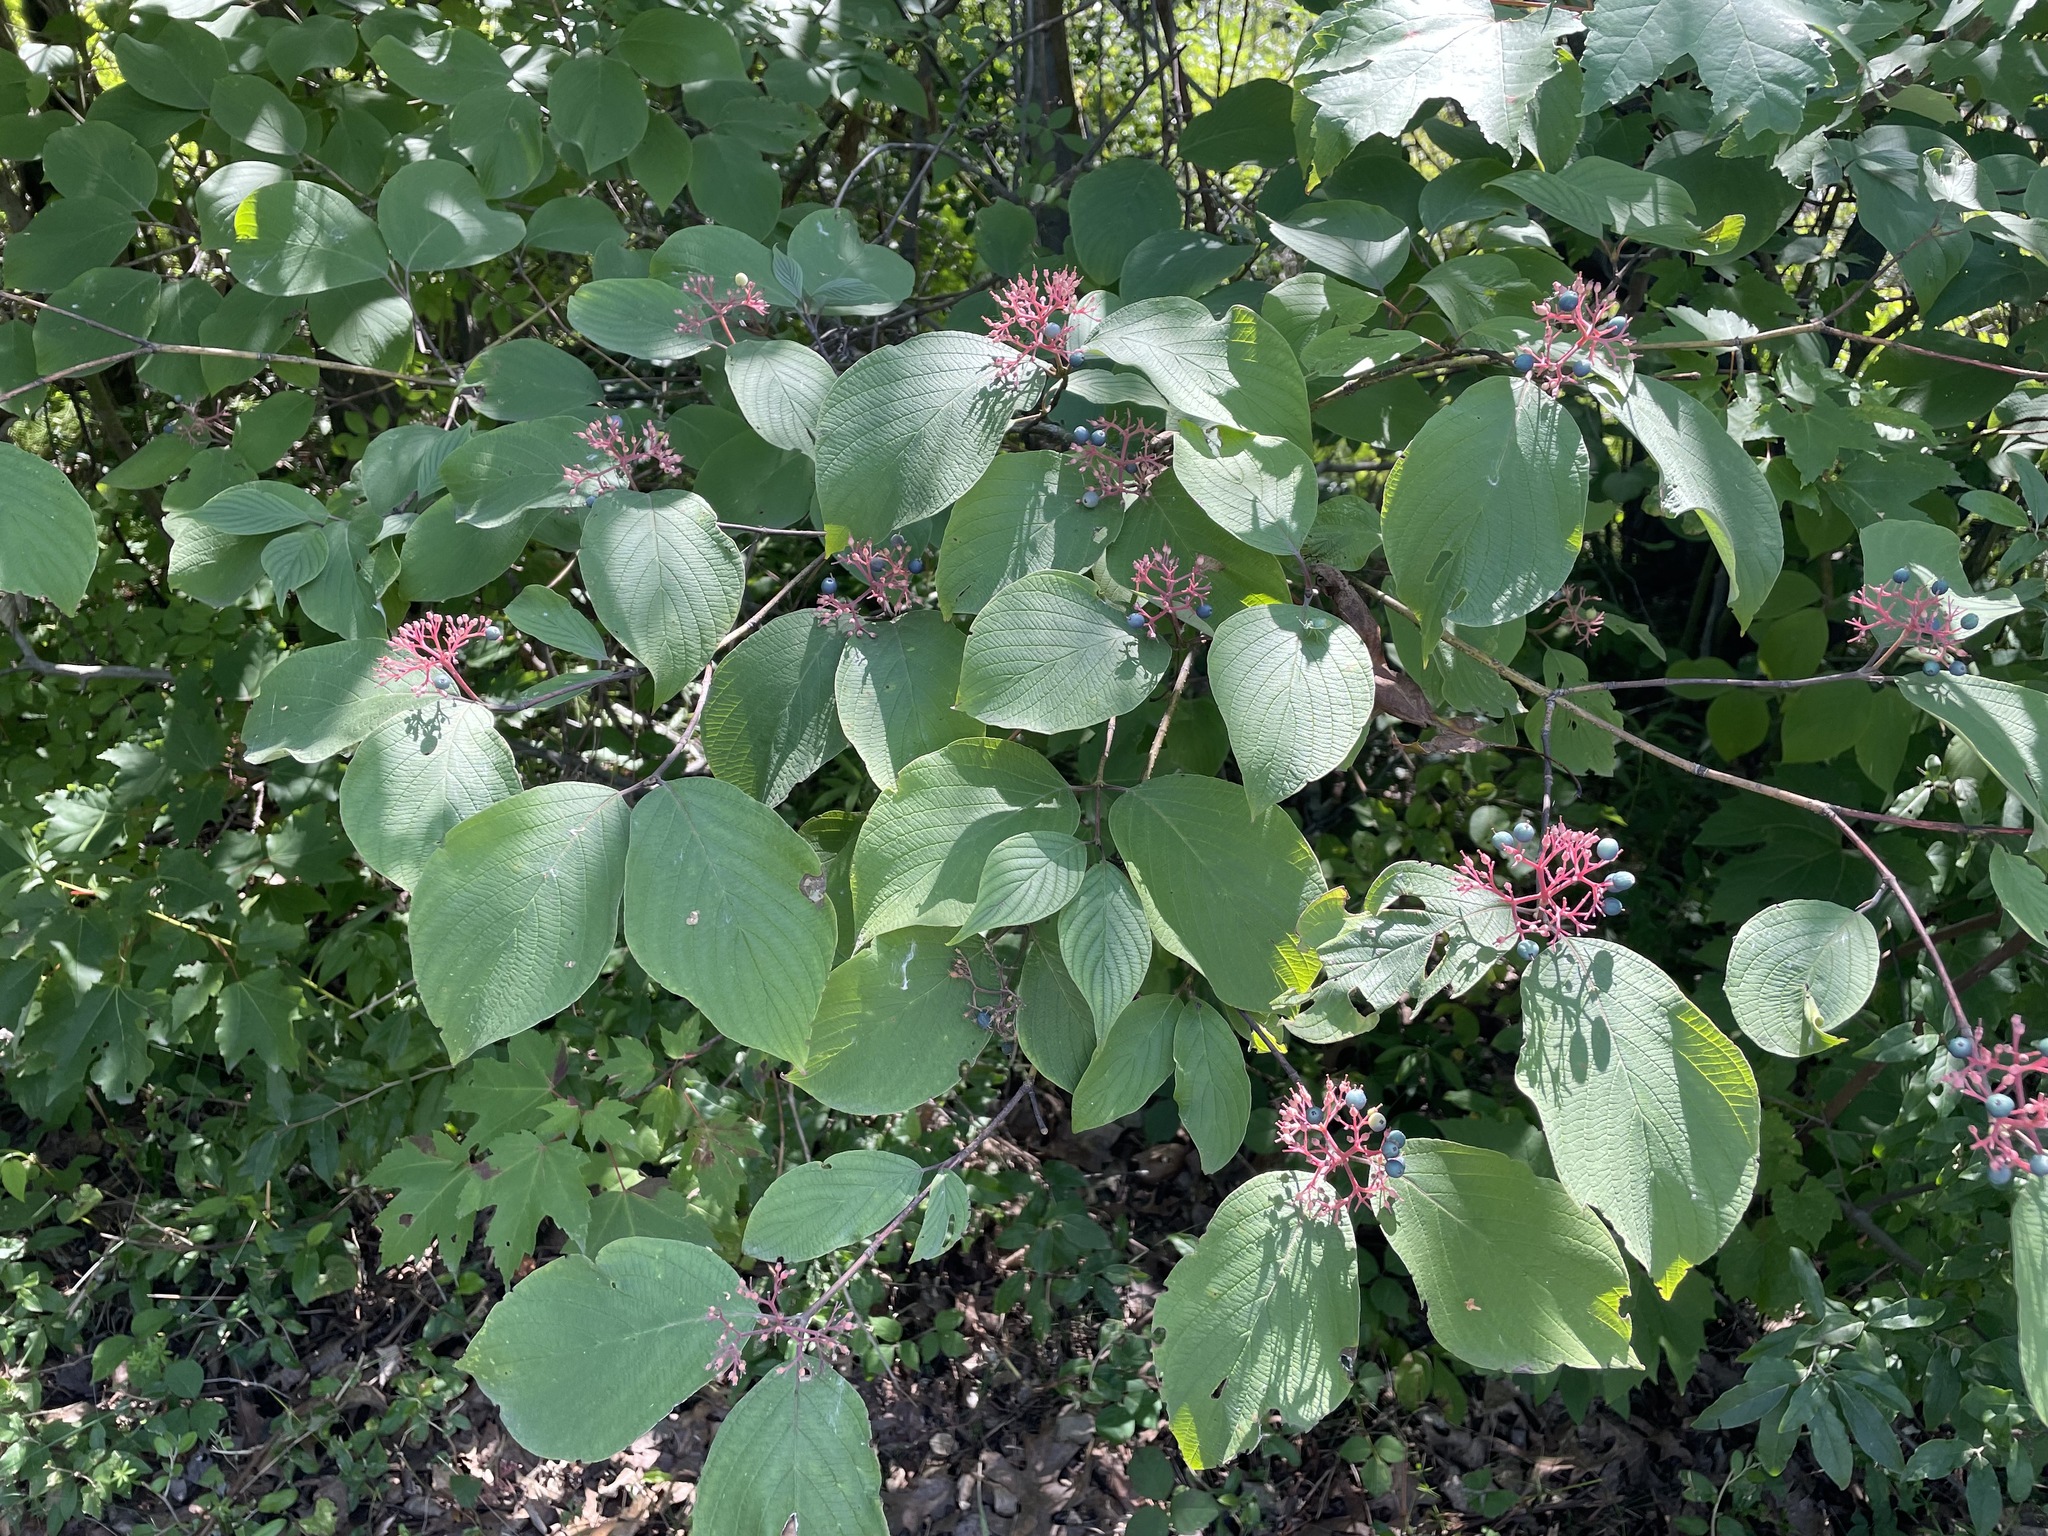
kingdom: Plantae
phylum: Tracheophyta
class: Magnoliopsida
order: Cornales
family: Cornaceae
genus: Cornus
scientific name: Cornus rugosa
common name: Round-leaf dogwood
